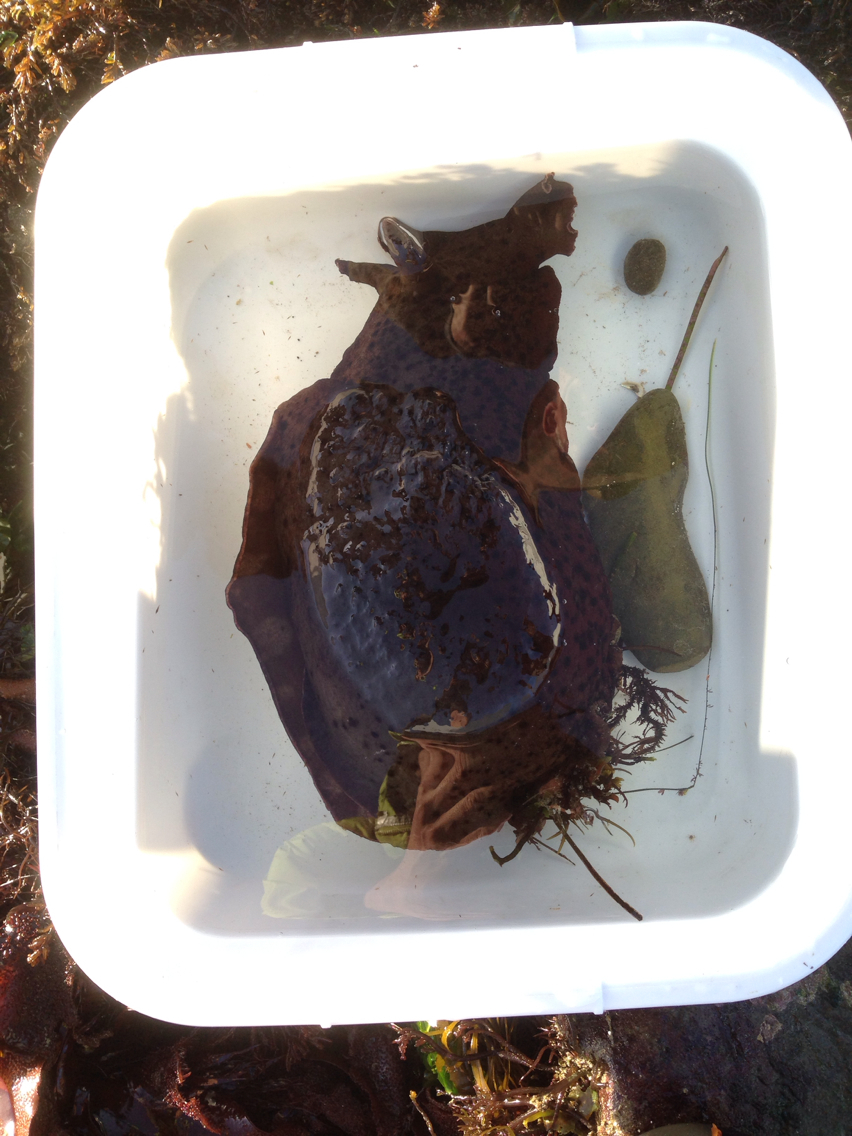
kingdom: Animalia
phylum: Mollusca
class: Gastropoda
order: Aplysiida
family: Aplysiidae
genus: Aplysia
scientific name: Aplysia californica
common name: California seahare
